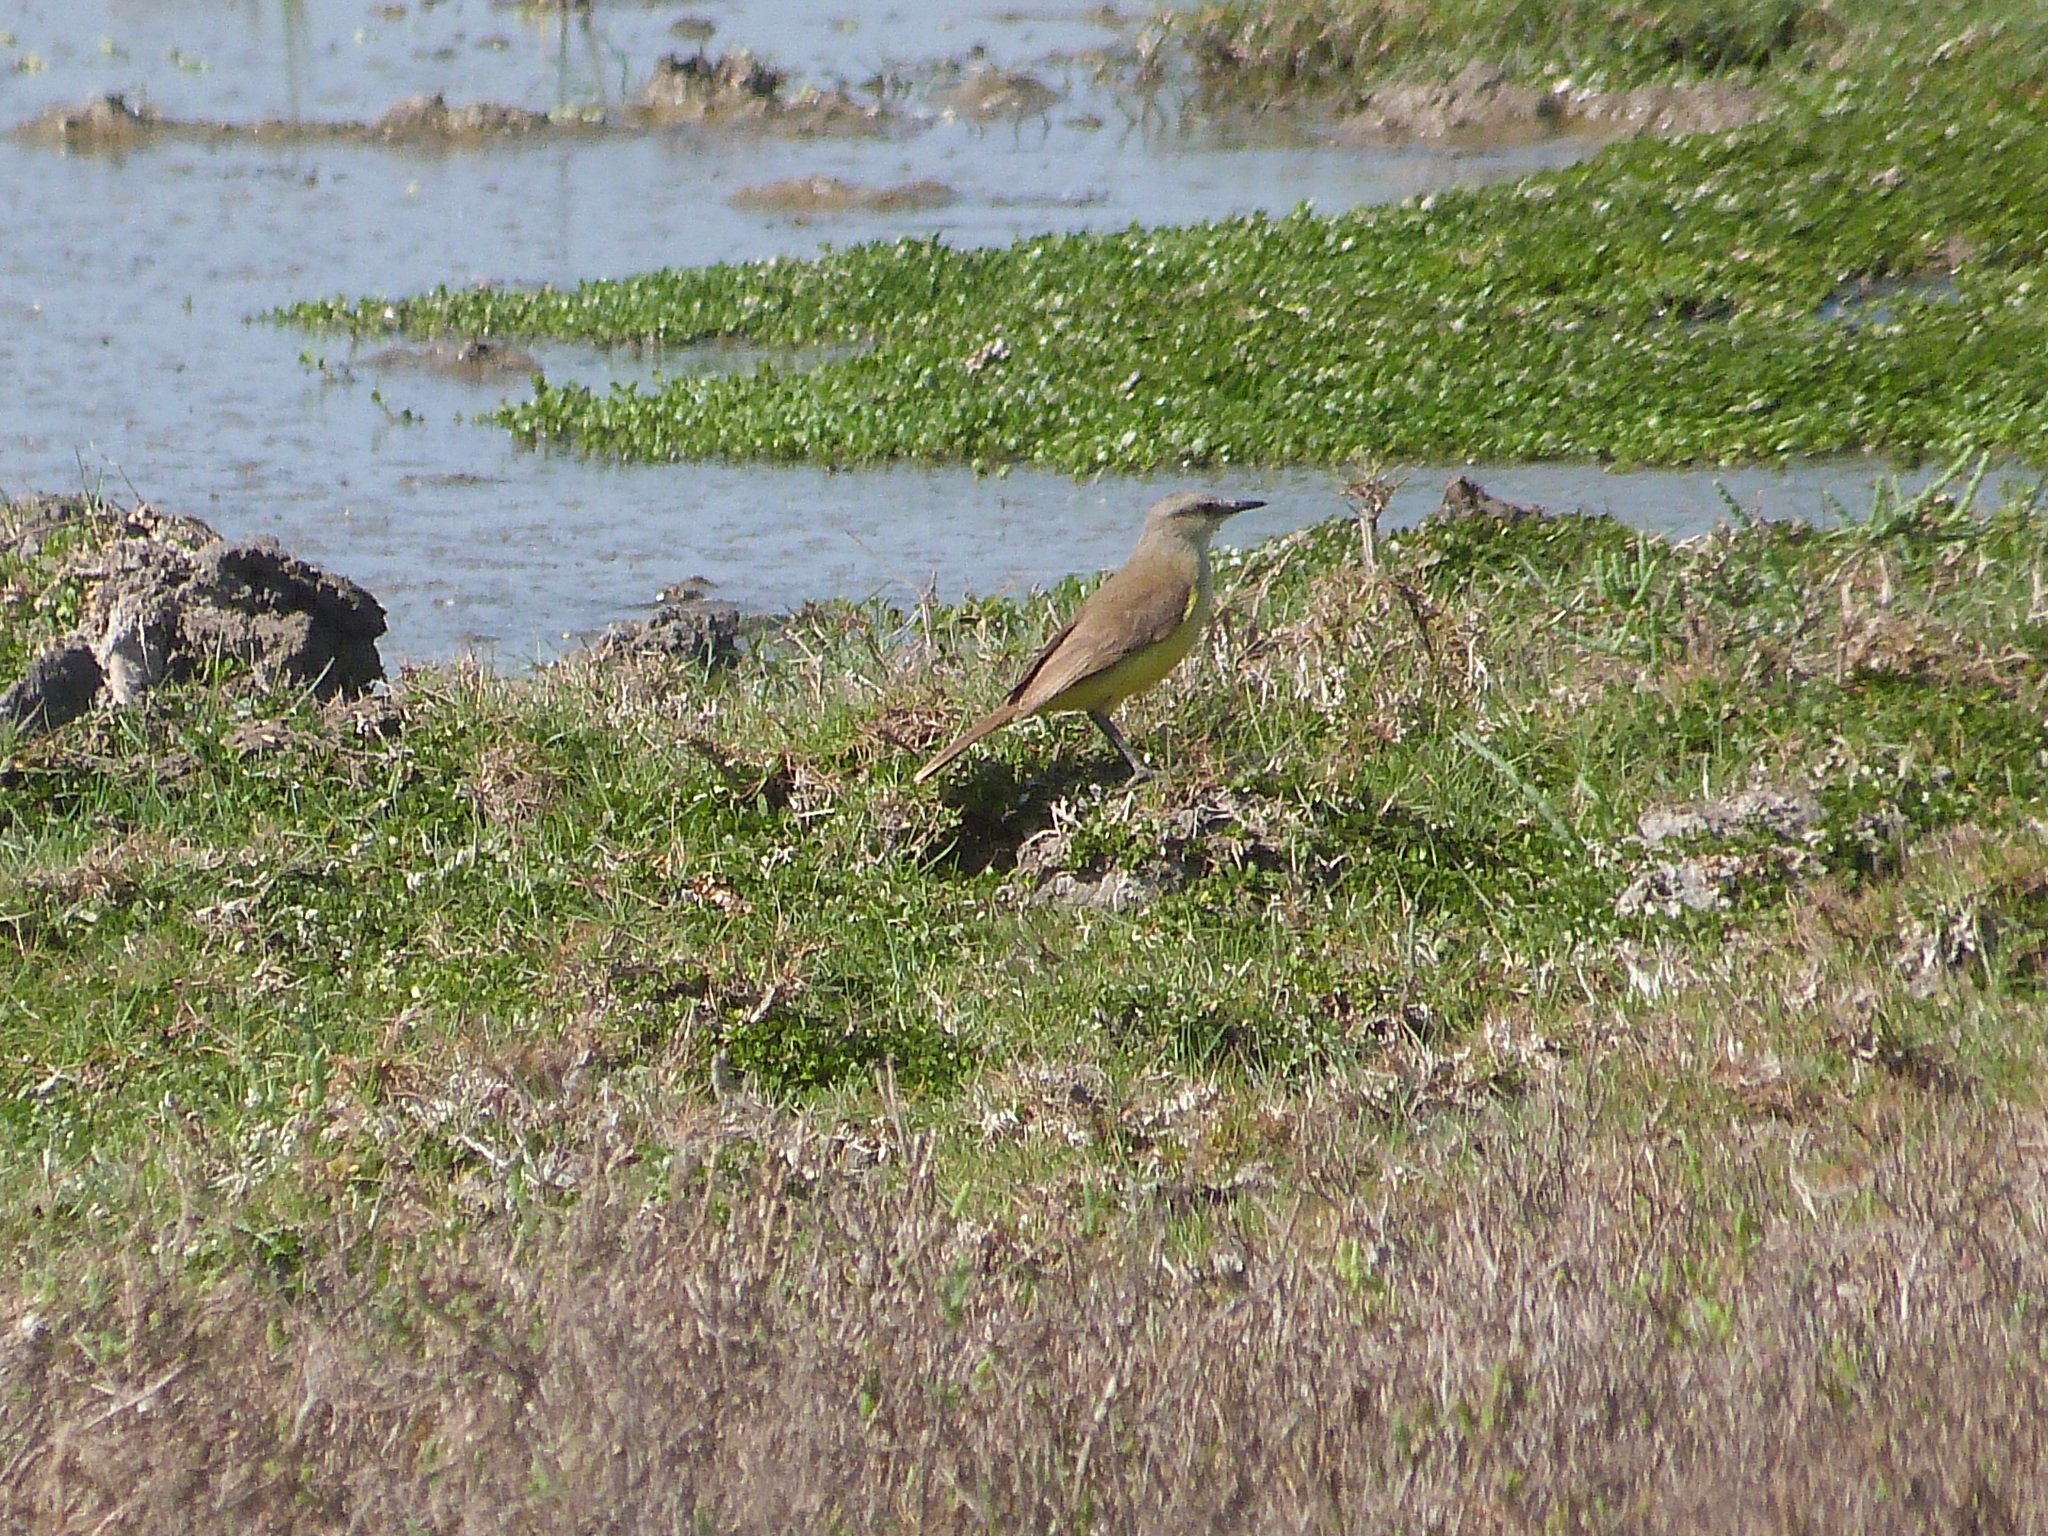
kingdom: Animalia
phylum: Chordata
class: Aves
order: Passeriformes
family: Tyrannidae
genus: Machetornis
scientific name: Machetornis rixosa
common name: Cattle tyrant
